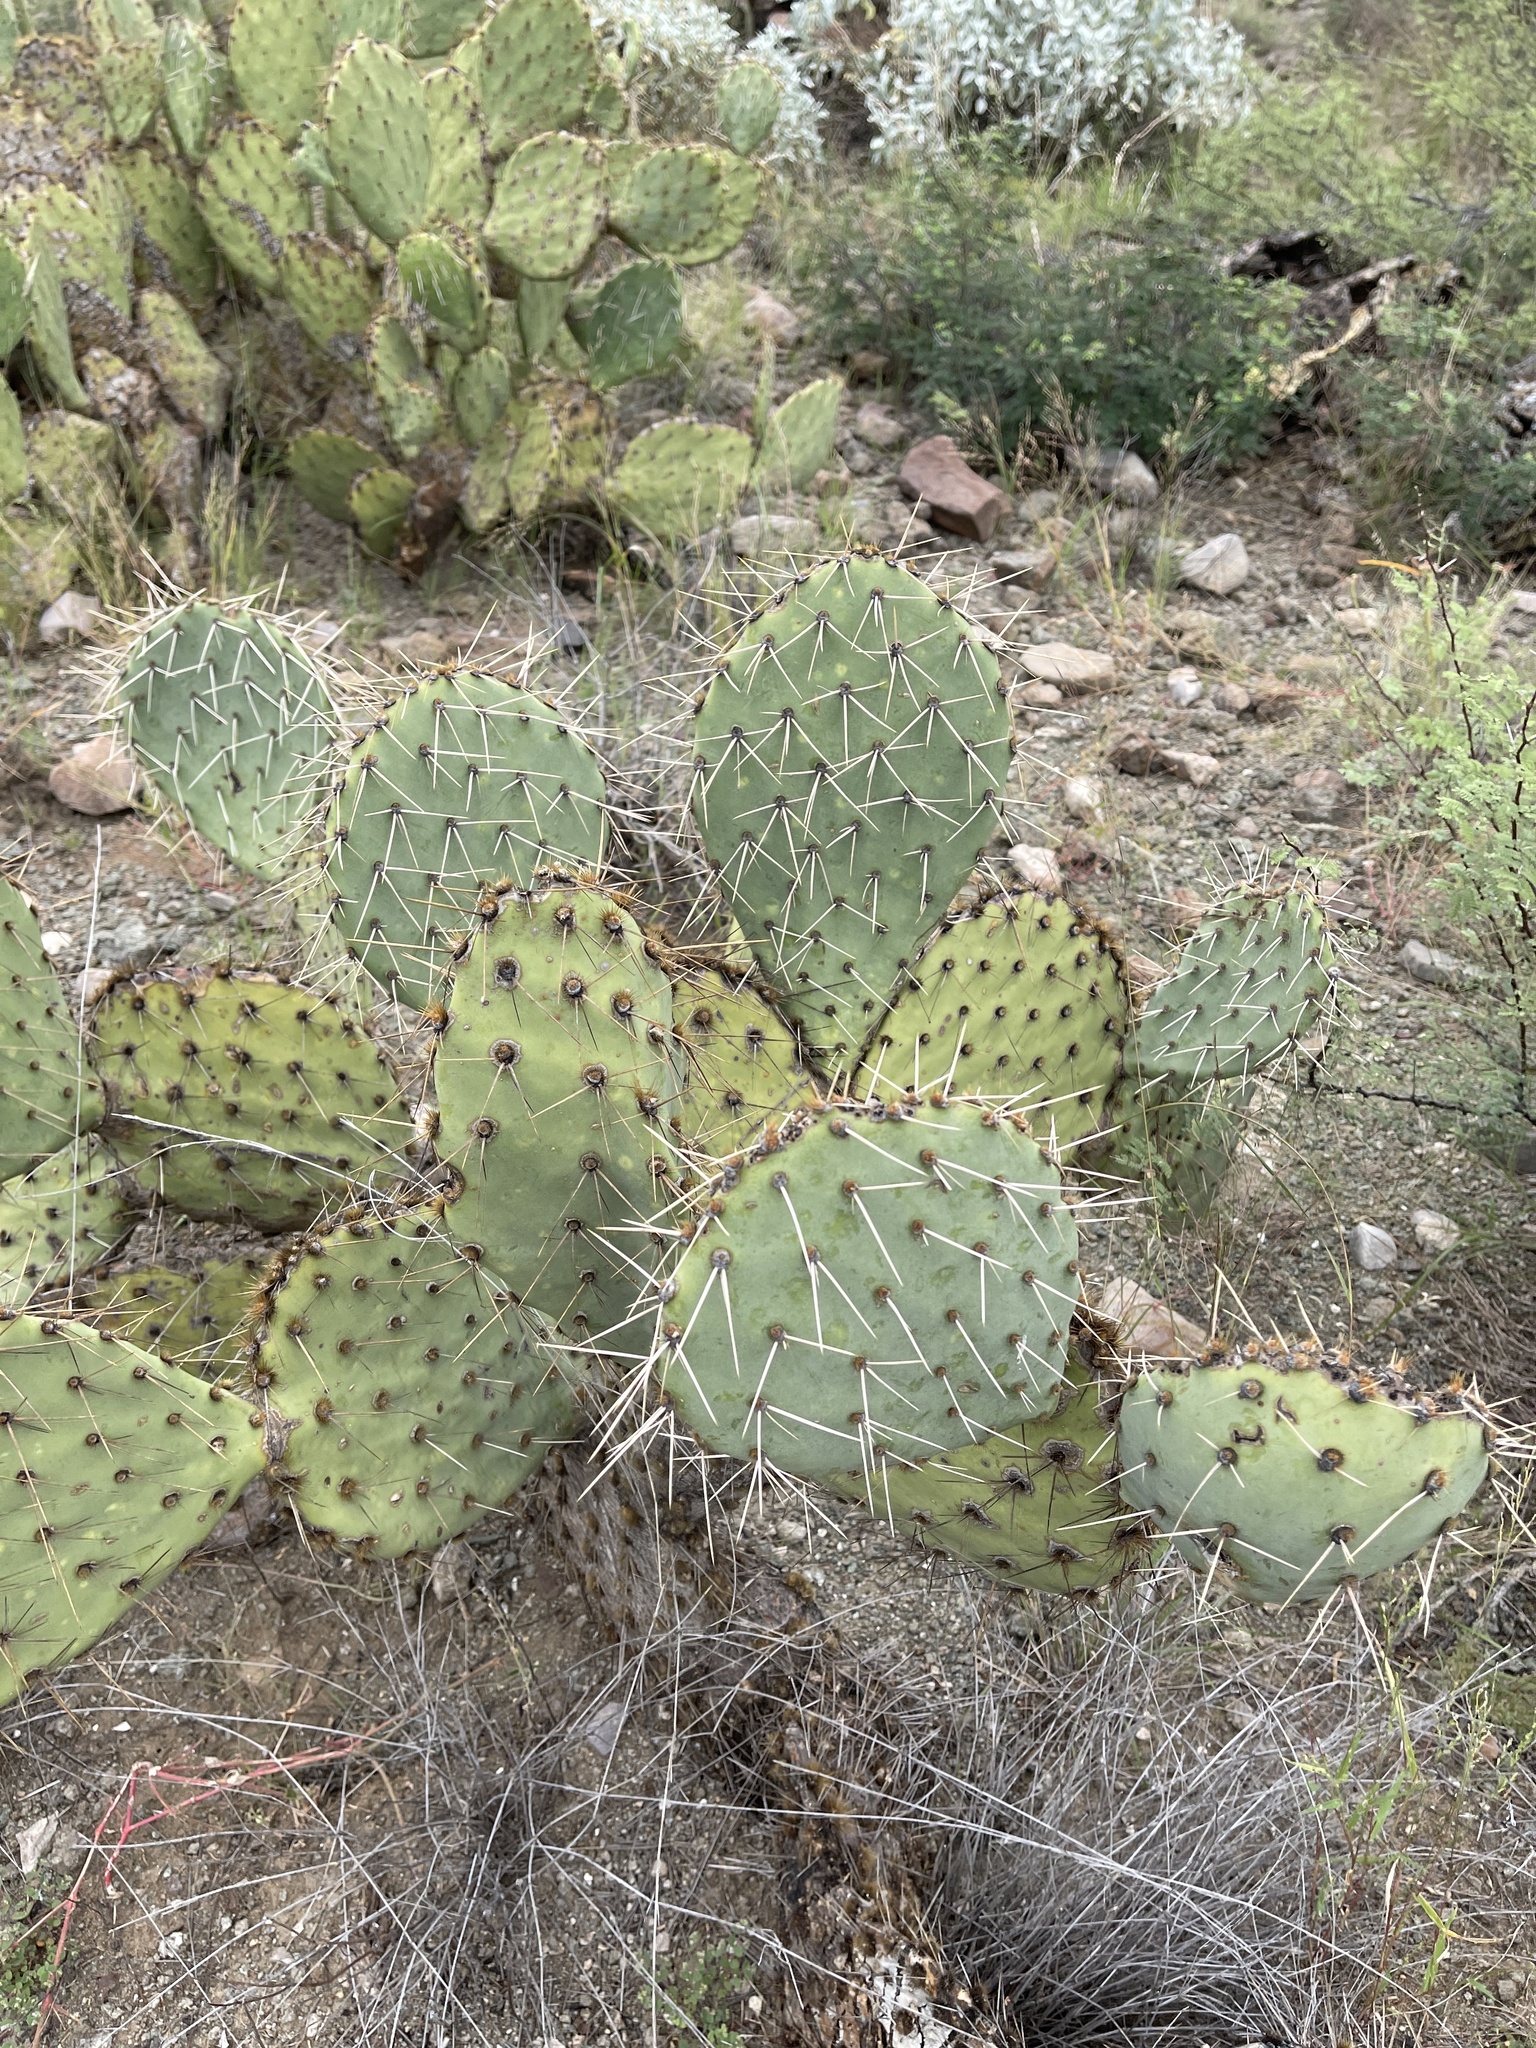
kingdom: Plantae
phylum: Tracheophyta
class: Magnoliopsida
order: Caryophyllales
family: Cactaceae
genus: Opuntia
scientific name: Opuntia phaeacantha
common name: New mexico prickly-pear
